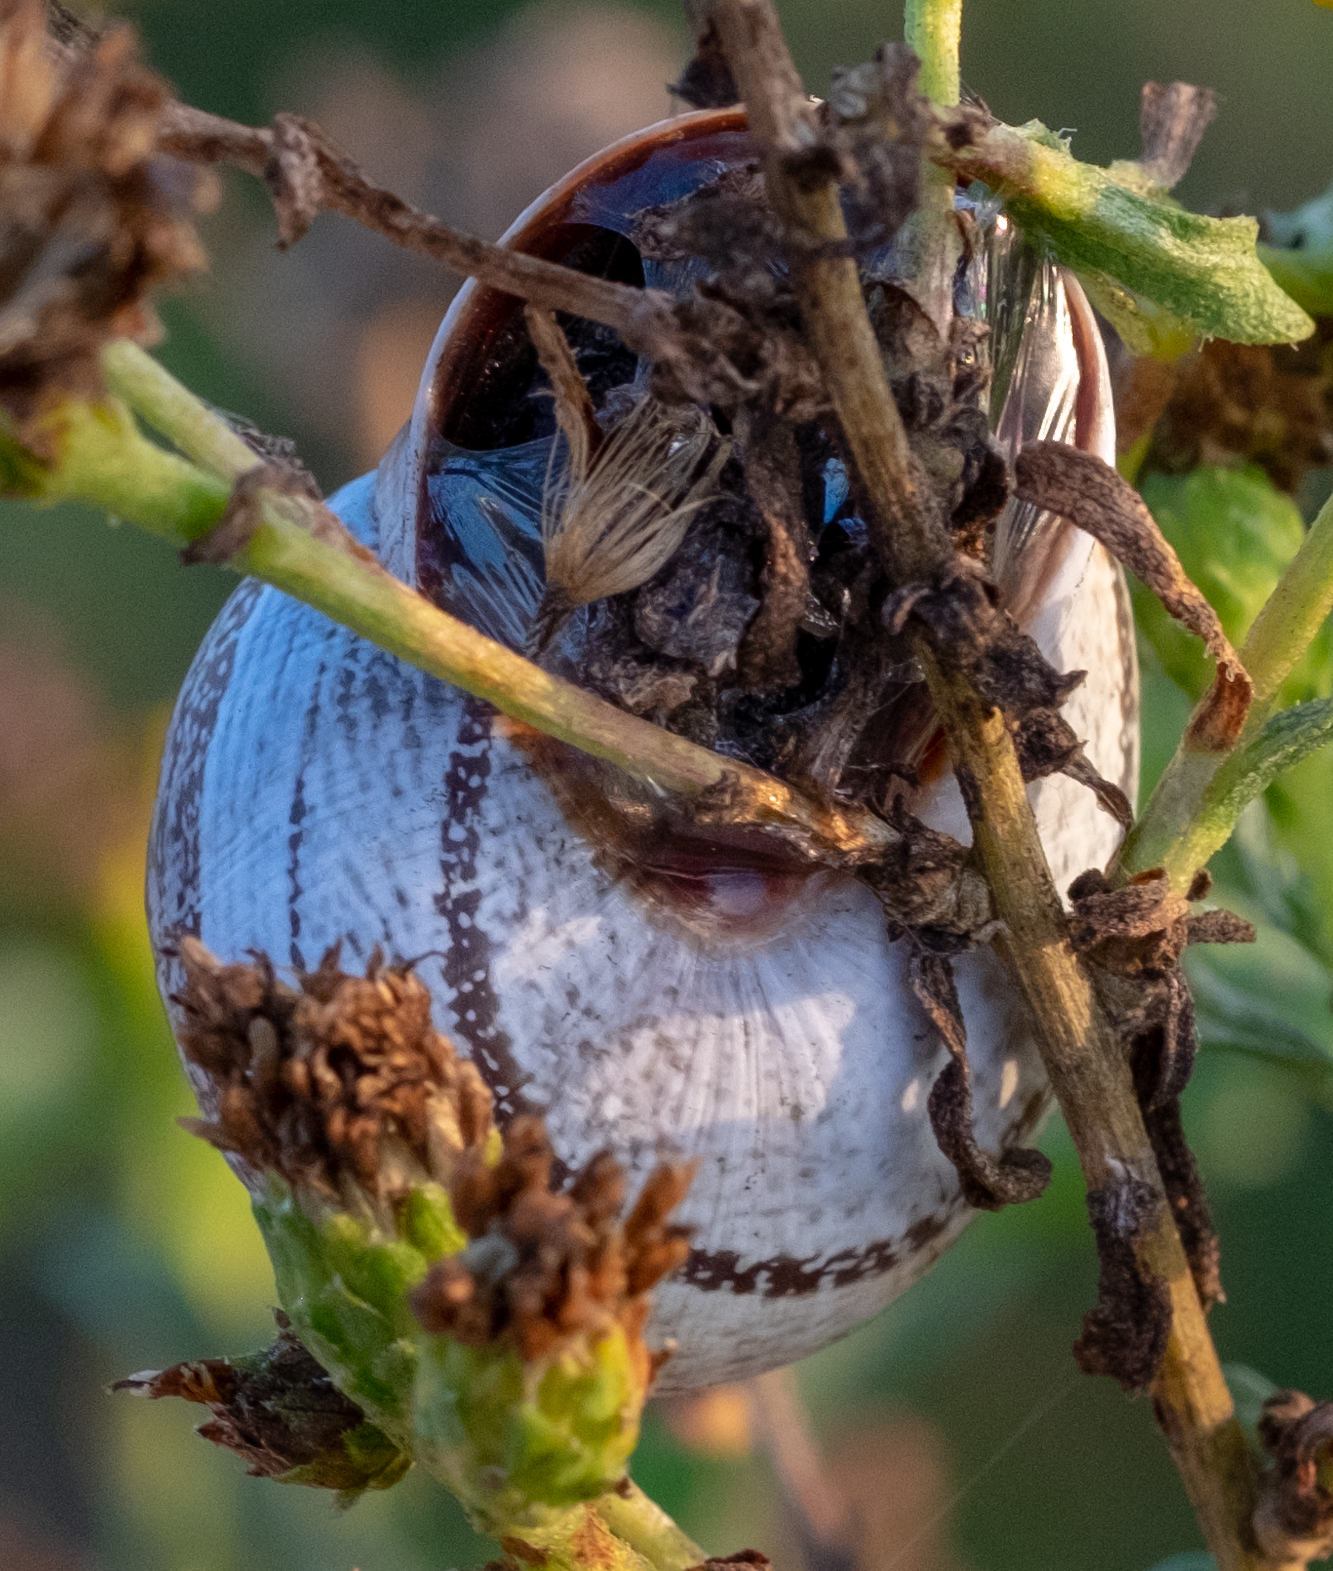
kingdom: Animalia
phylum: Mollusca
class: Gastropoda
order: Stylommatophora
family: Helicidae
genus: Otala
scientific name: Otala lactea
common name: Milk snail
